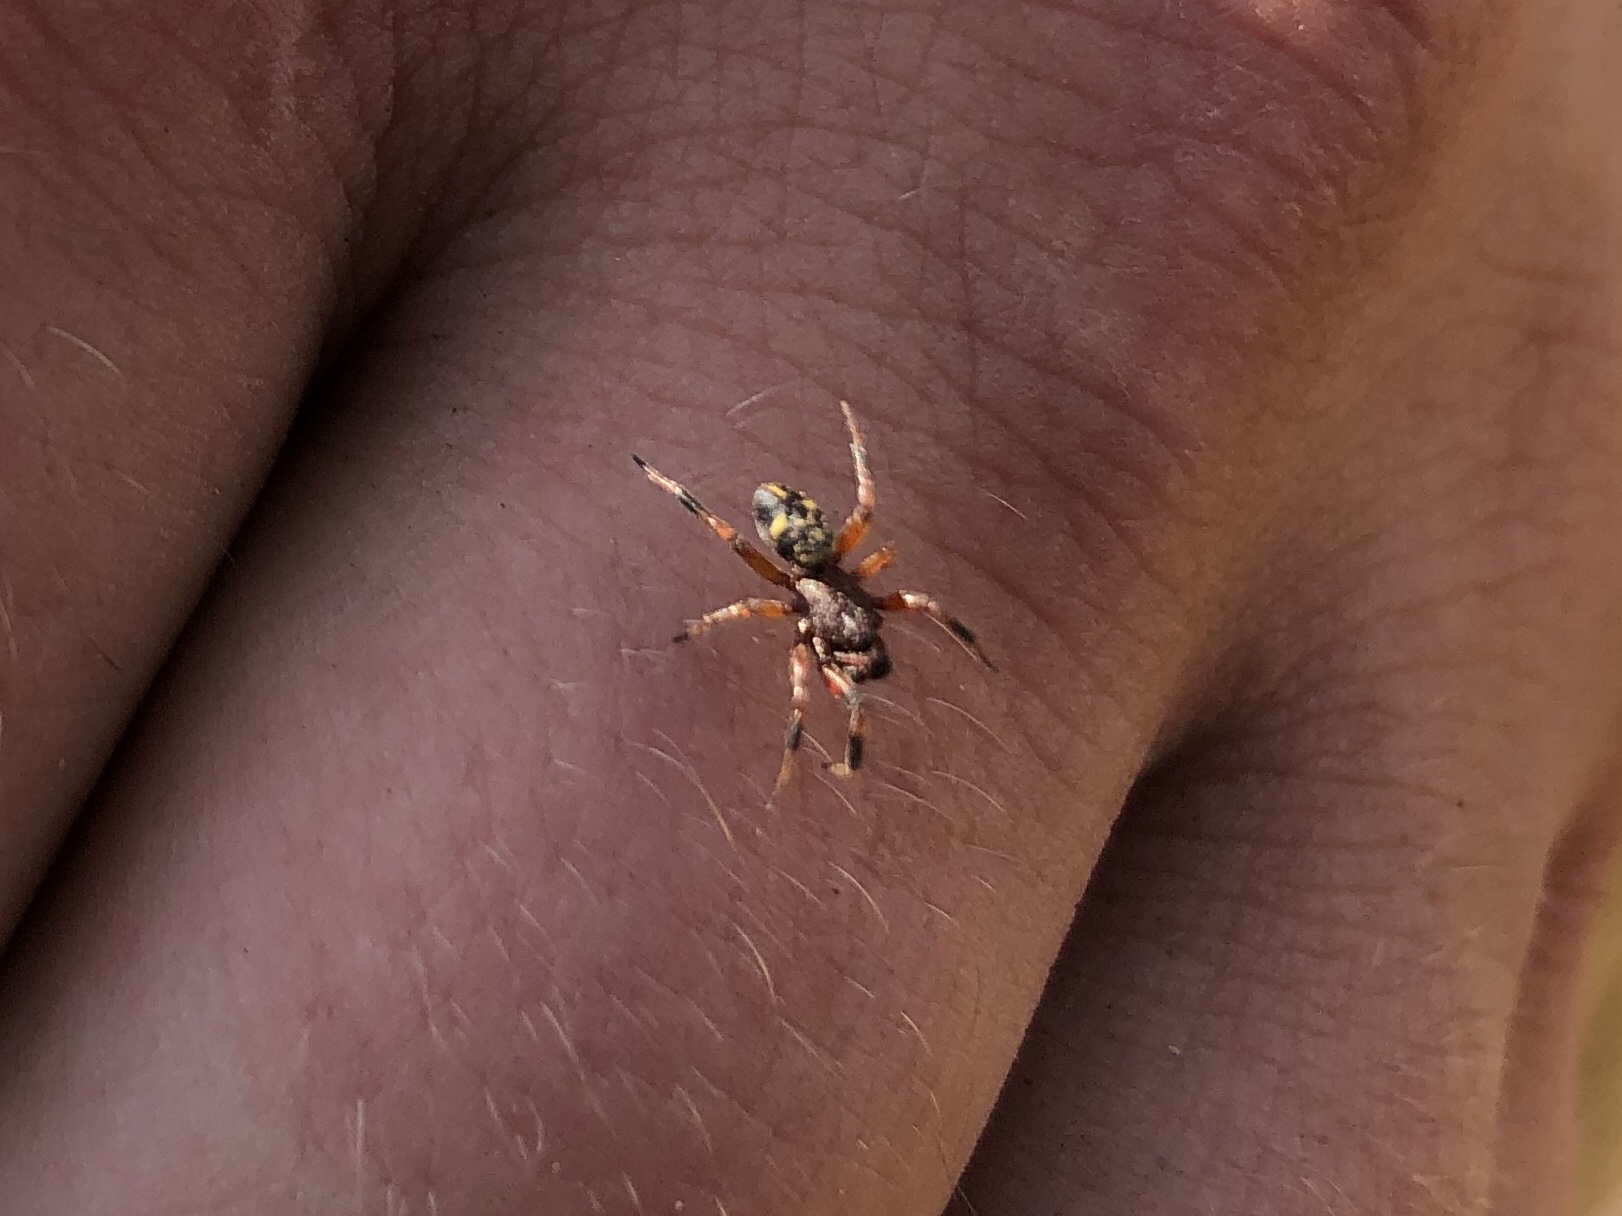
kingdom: Animalia
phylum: Arthropoda
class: Arachnida
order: Araneae
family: Theridiidae
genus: Asagena
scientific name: Asagena phalerata
